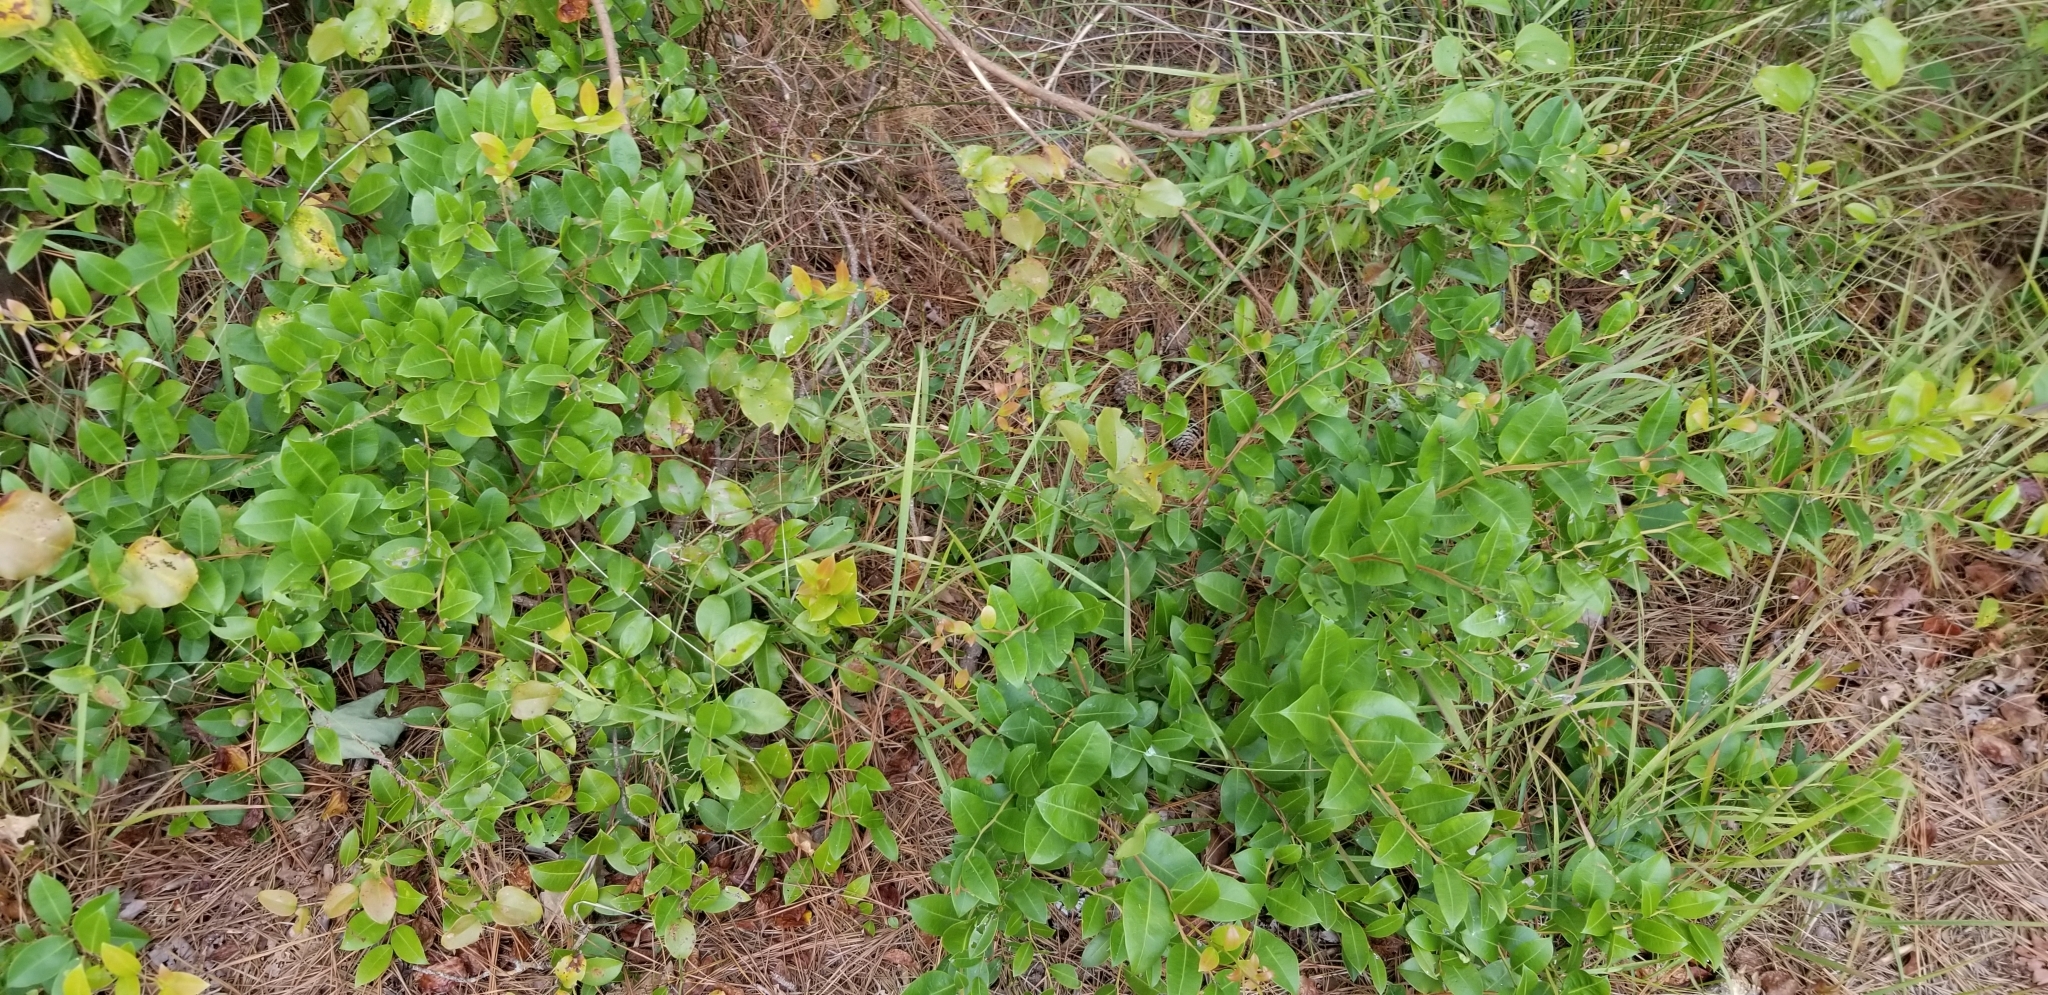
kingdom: Plantae
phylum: Tracheophyta
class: Magnoliopsida
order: Ericales
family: Ericaceae
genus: Lyonia
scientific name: Lyonia lucida
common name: Fetterbush
